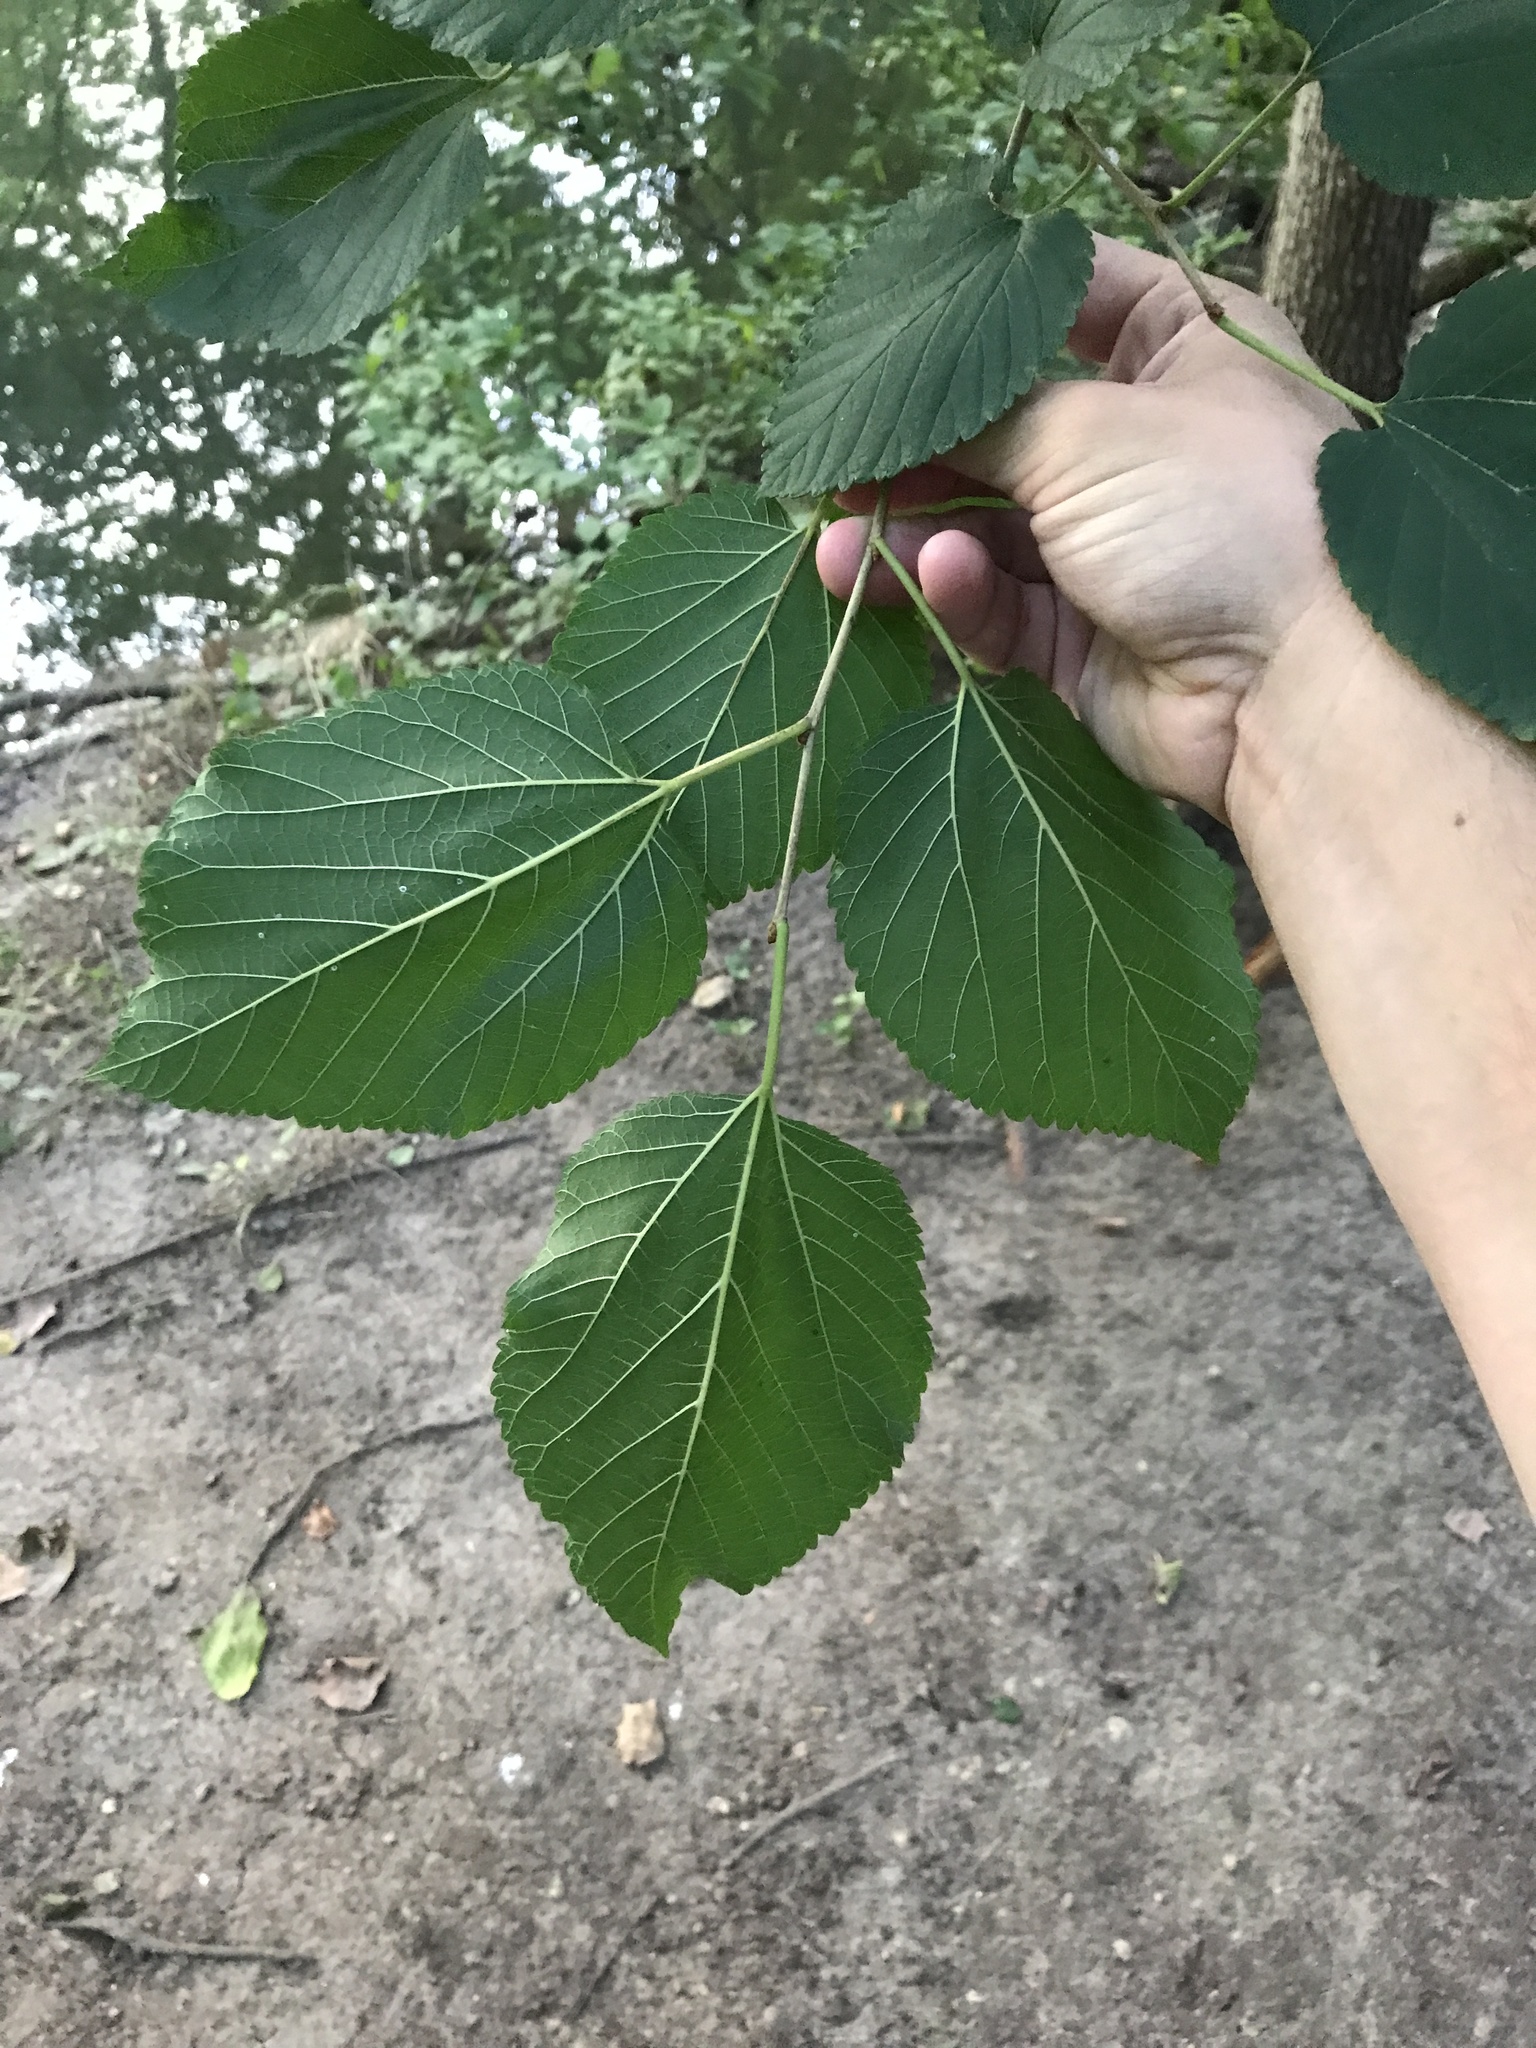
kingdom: Plantae
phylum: Tracheophyta
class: Magnoliopsida
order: Rosales
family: Moraceae
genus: Morus
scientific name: Morus rubra
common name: Red mulberry
